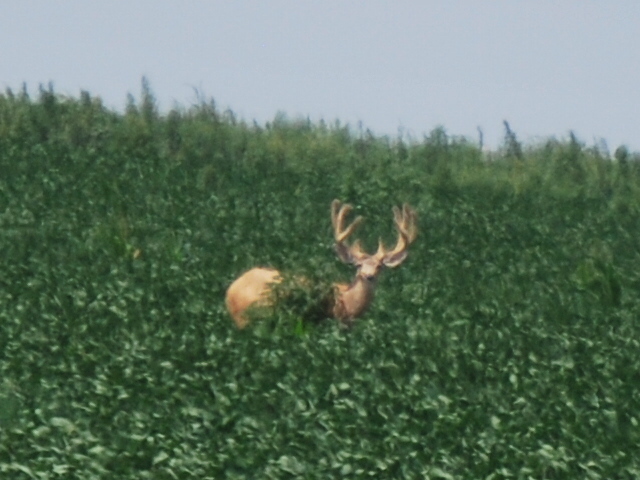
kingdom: Animalia
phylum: Chordata
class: Mammalia
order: Artiodactyla
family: Cervidae
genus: Odocoileus
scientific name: Odocoileus virginianus
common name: White-tailed deer
